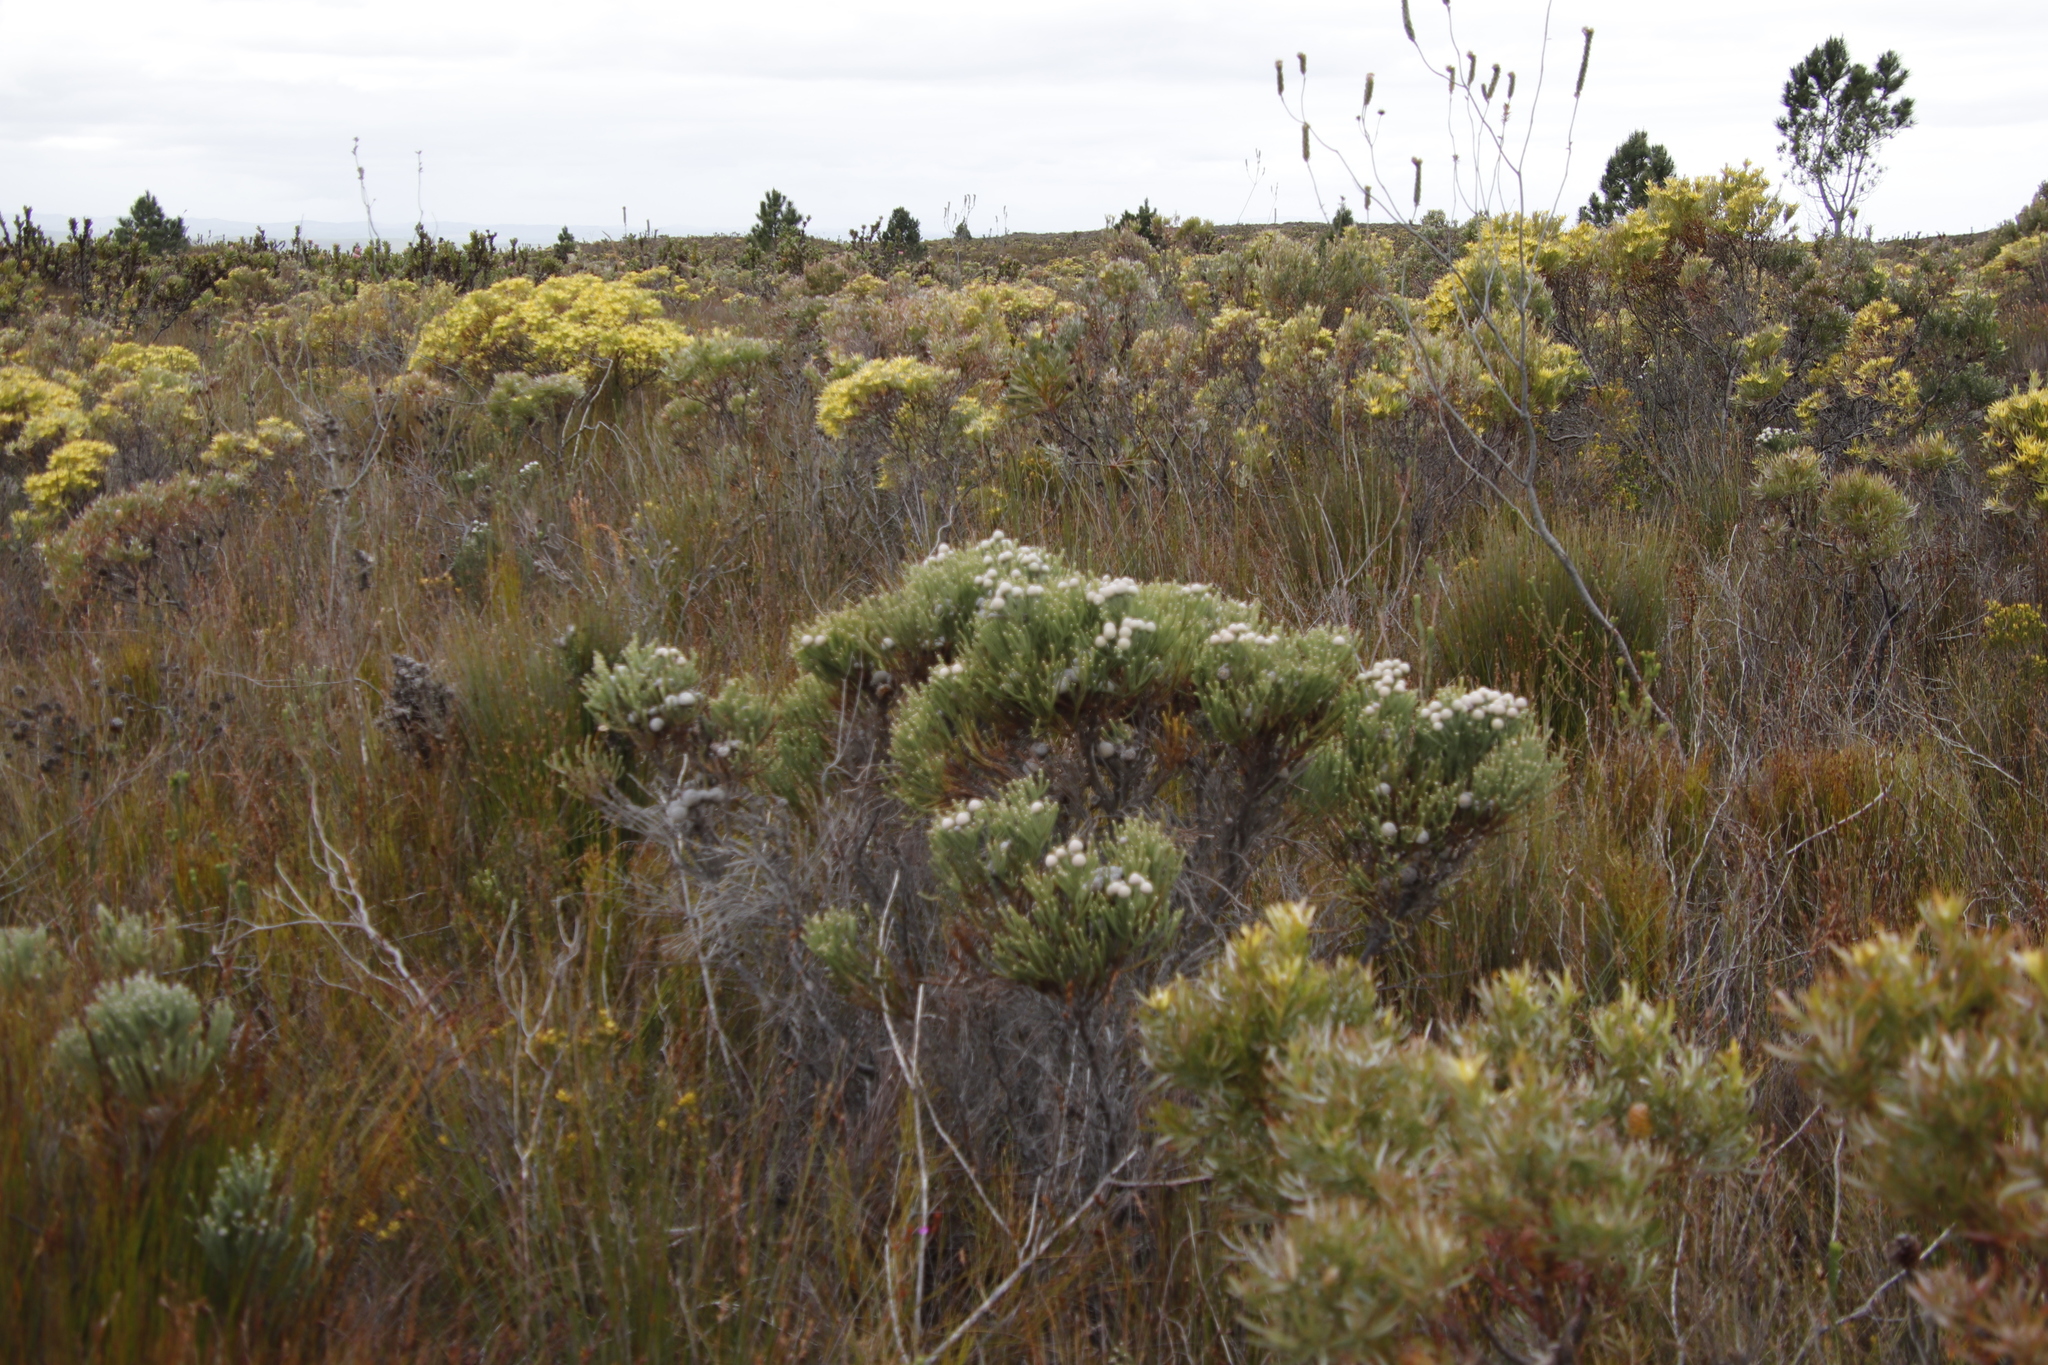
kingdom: Plantae
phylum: Tracheophyta
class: Magnoliopsida
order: Bruniales
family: Bruniaceae
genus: Brunia
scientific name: Brunia laevis
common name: Silver brunia
